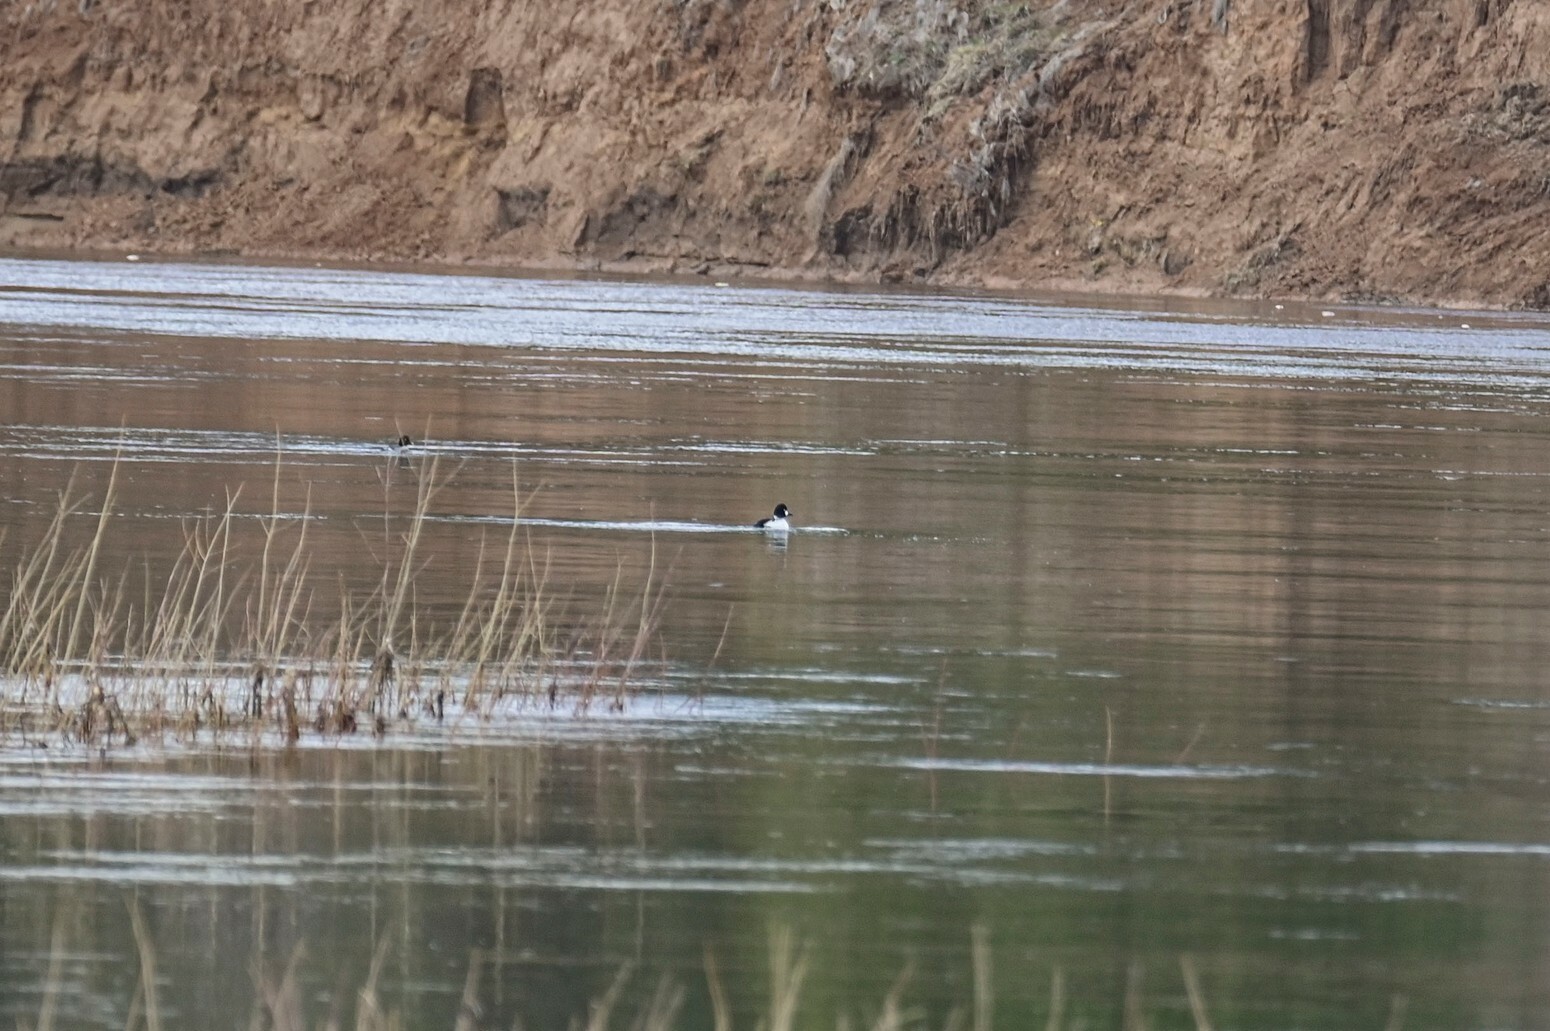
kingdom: Animalia
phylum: Chordata
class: Aves
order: Anseriformes
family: Anatidae
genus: Bucephala
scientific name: Bucephala clangula
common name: Common goldeneye
